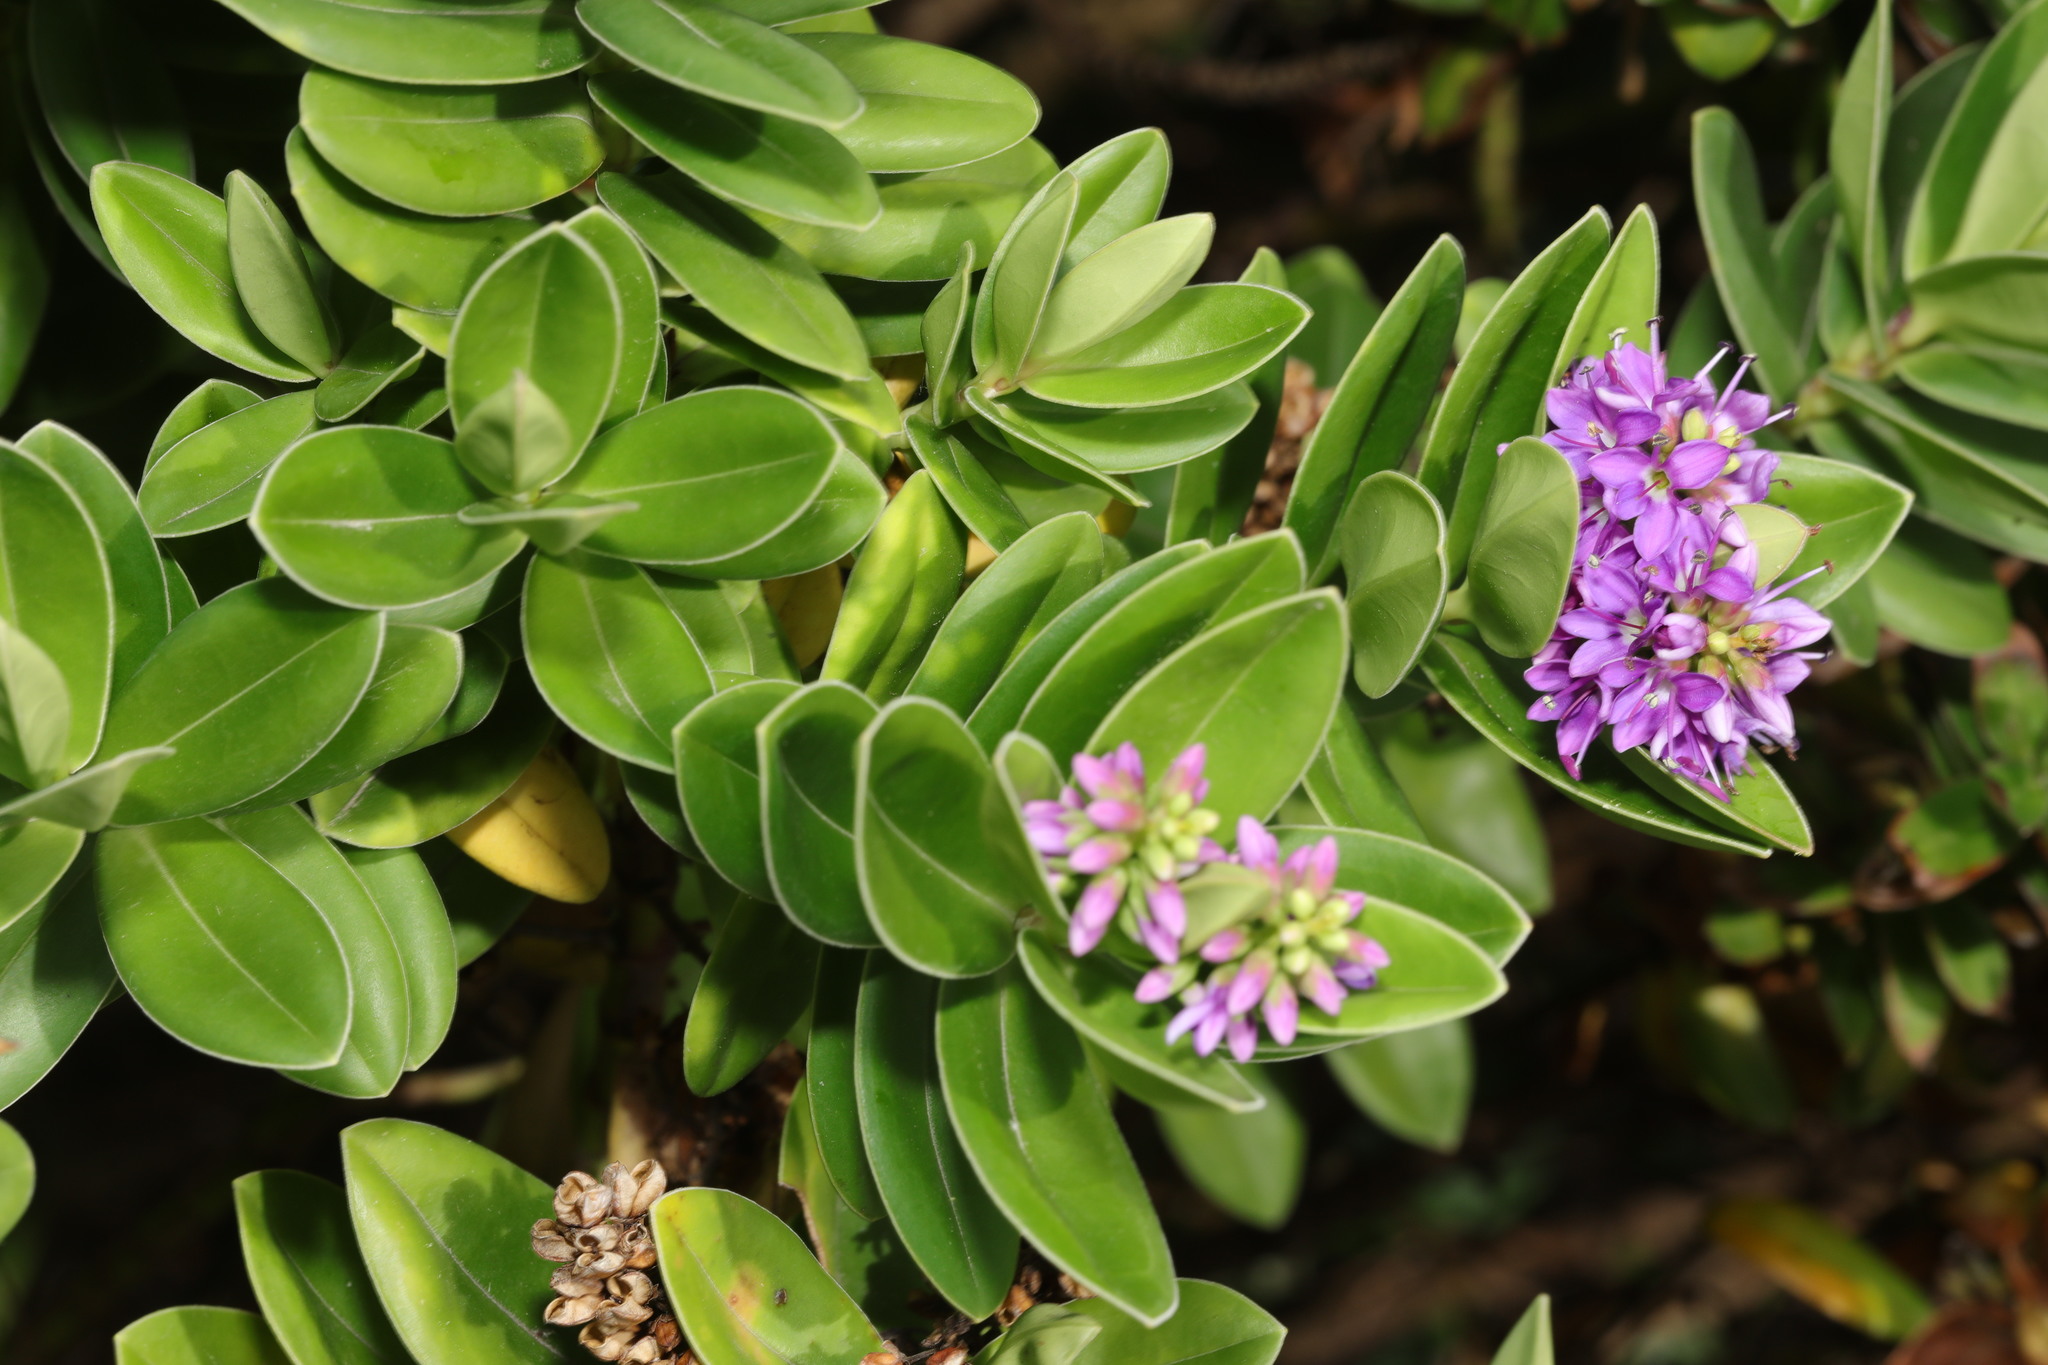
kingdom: Plantae
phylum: Tracheophyta
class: Magnoliopsida
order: Lamiales
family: Plantaginaceae
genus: Veronica
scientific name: Veronica franciscana
